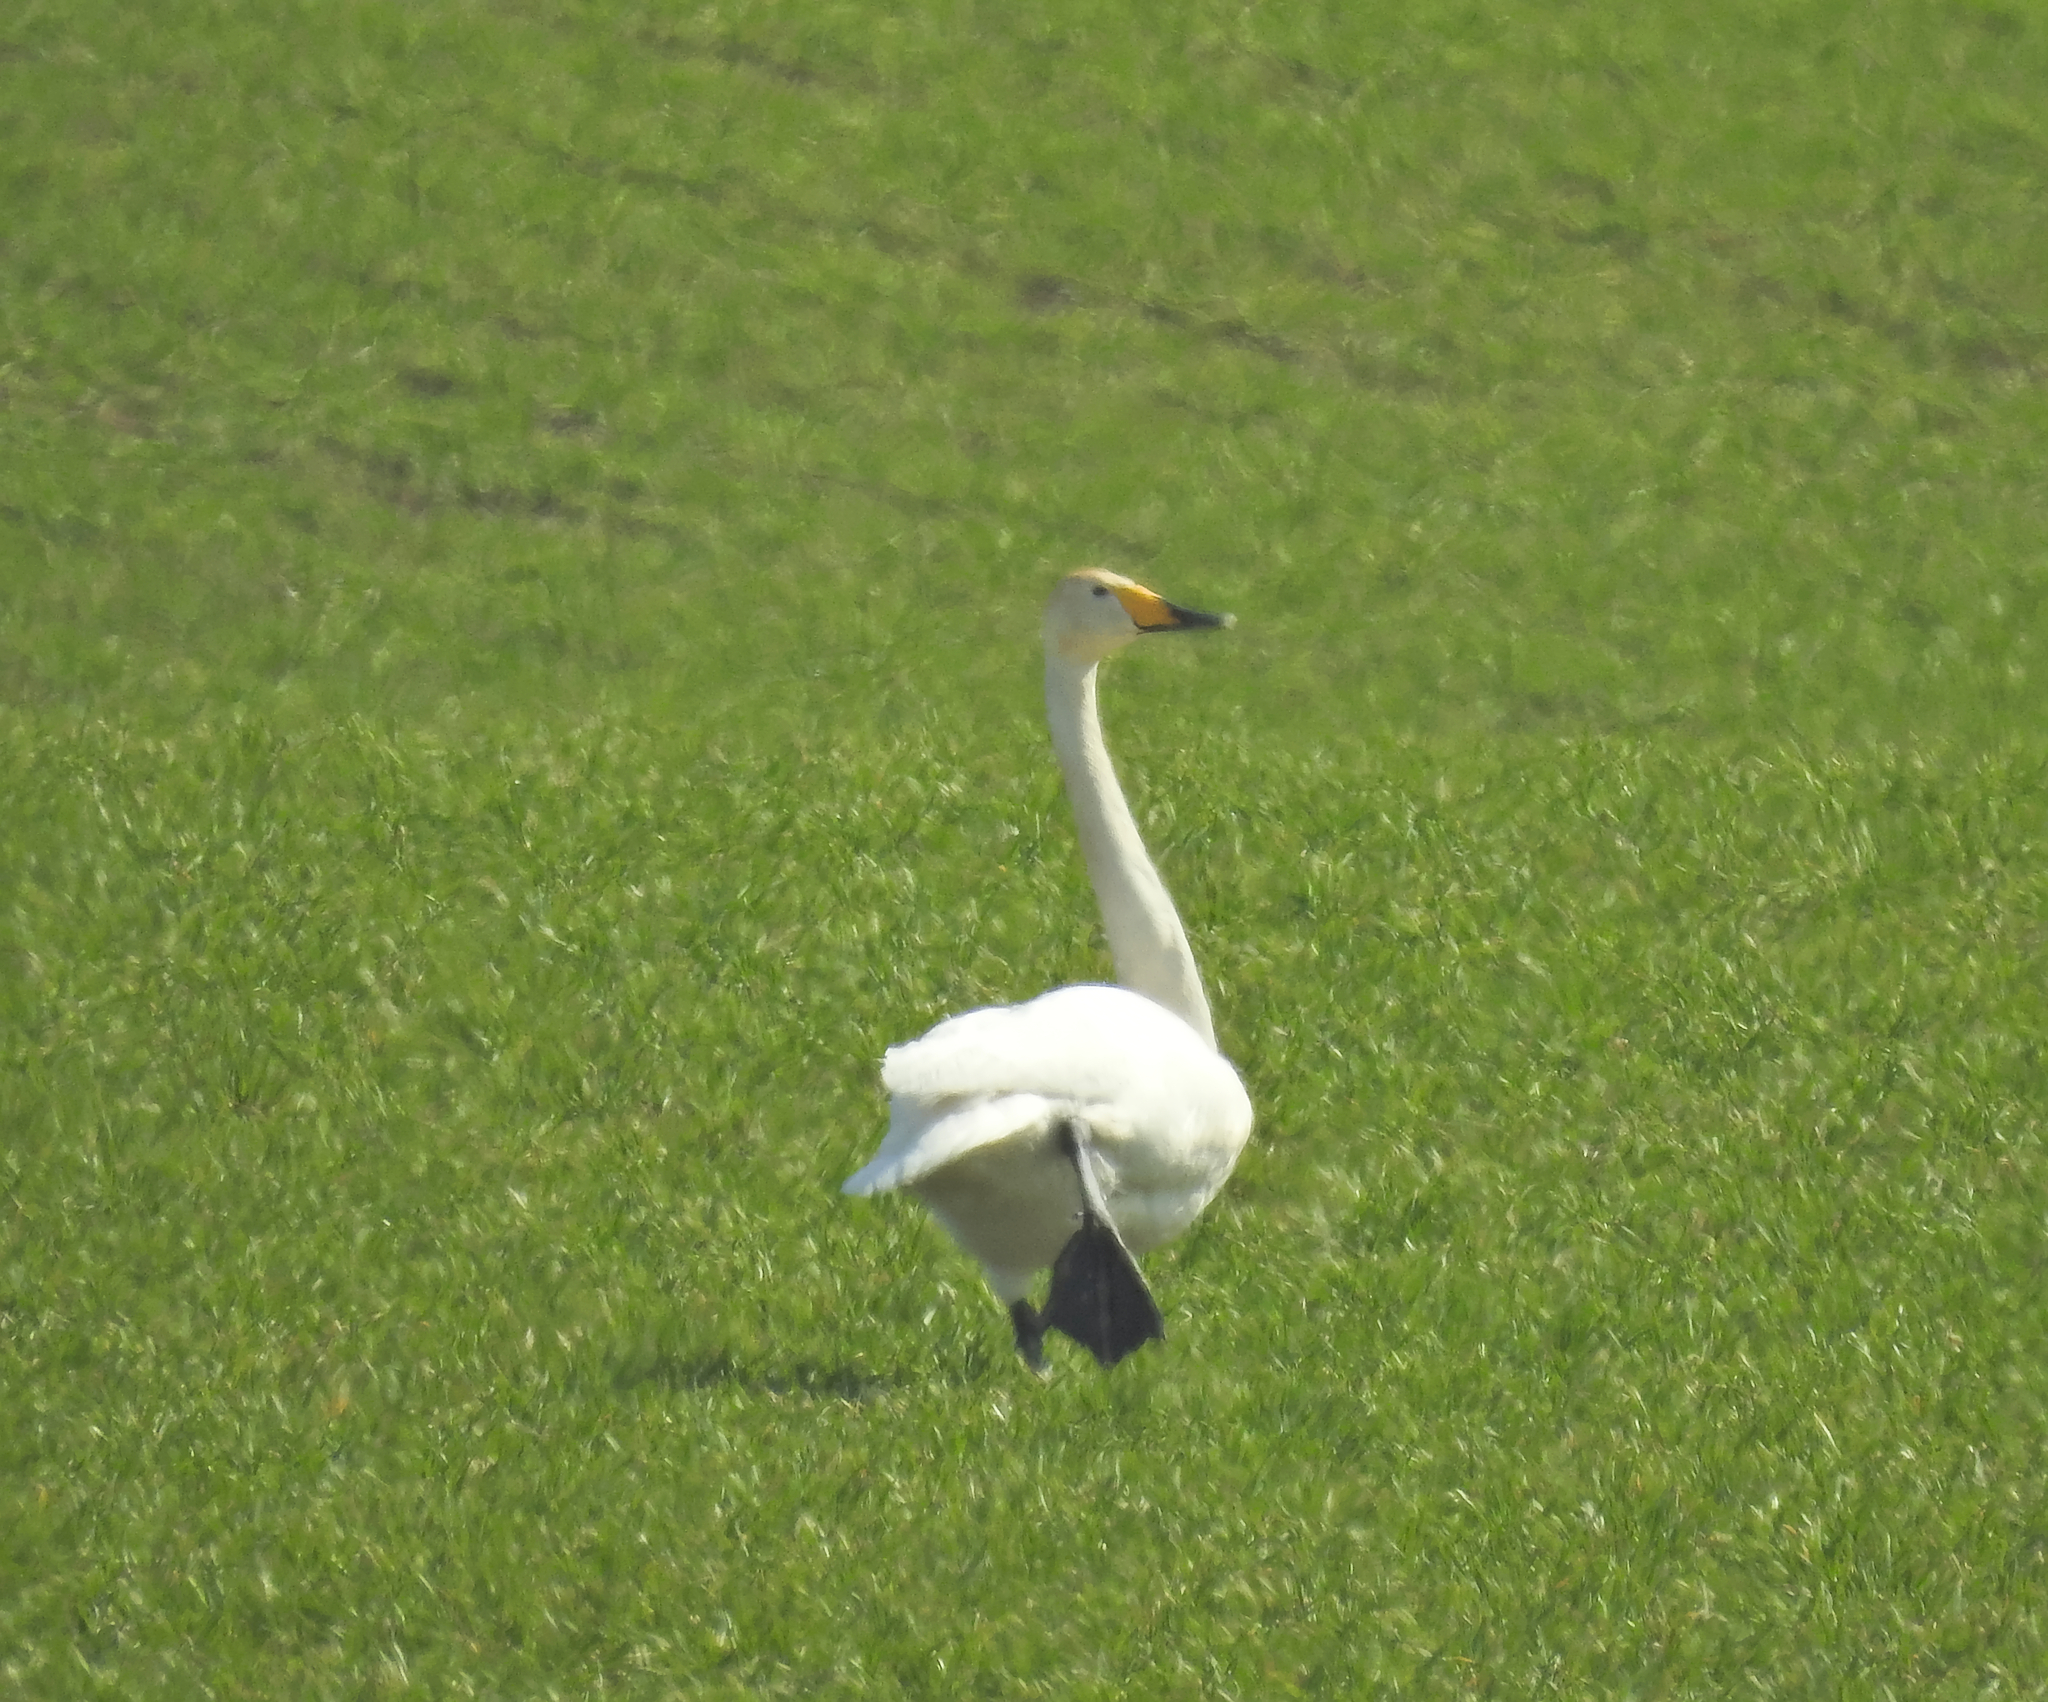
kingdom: Animalia
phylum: Chordata
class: Aves
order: Anseriformes
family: Anatidae
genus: Cygnus
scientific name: Cygnus cygnus
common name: Whooper swan
